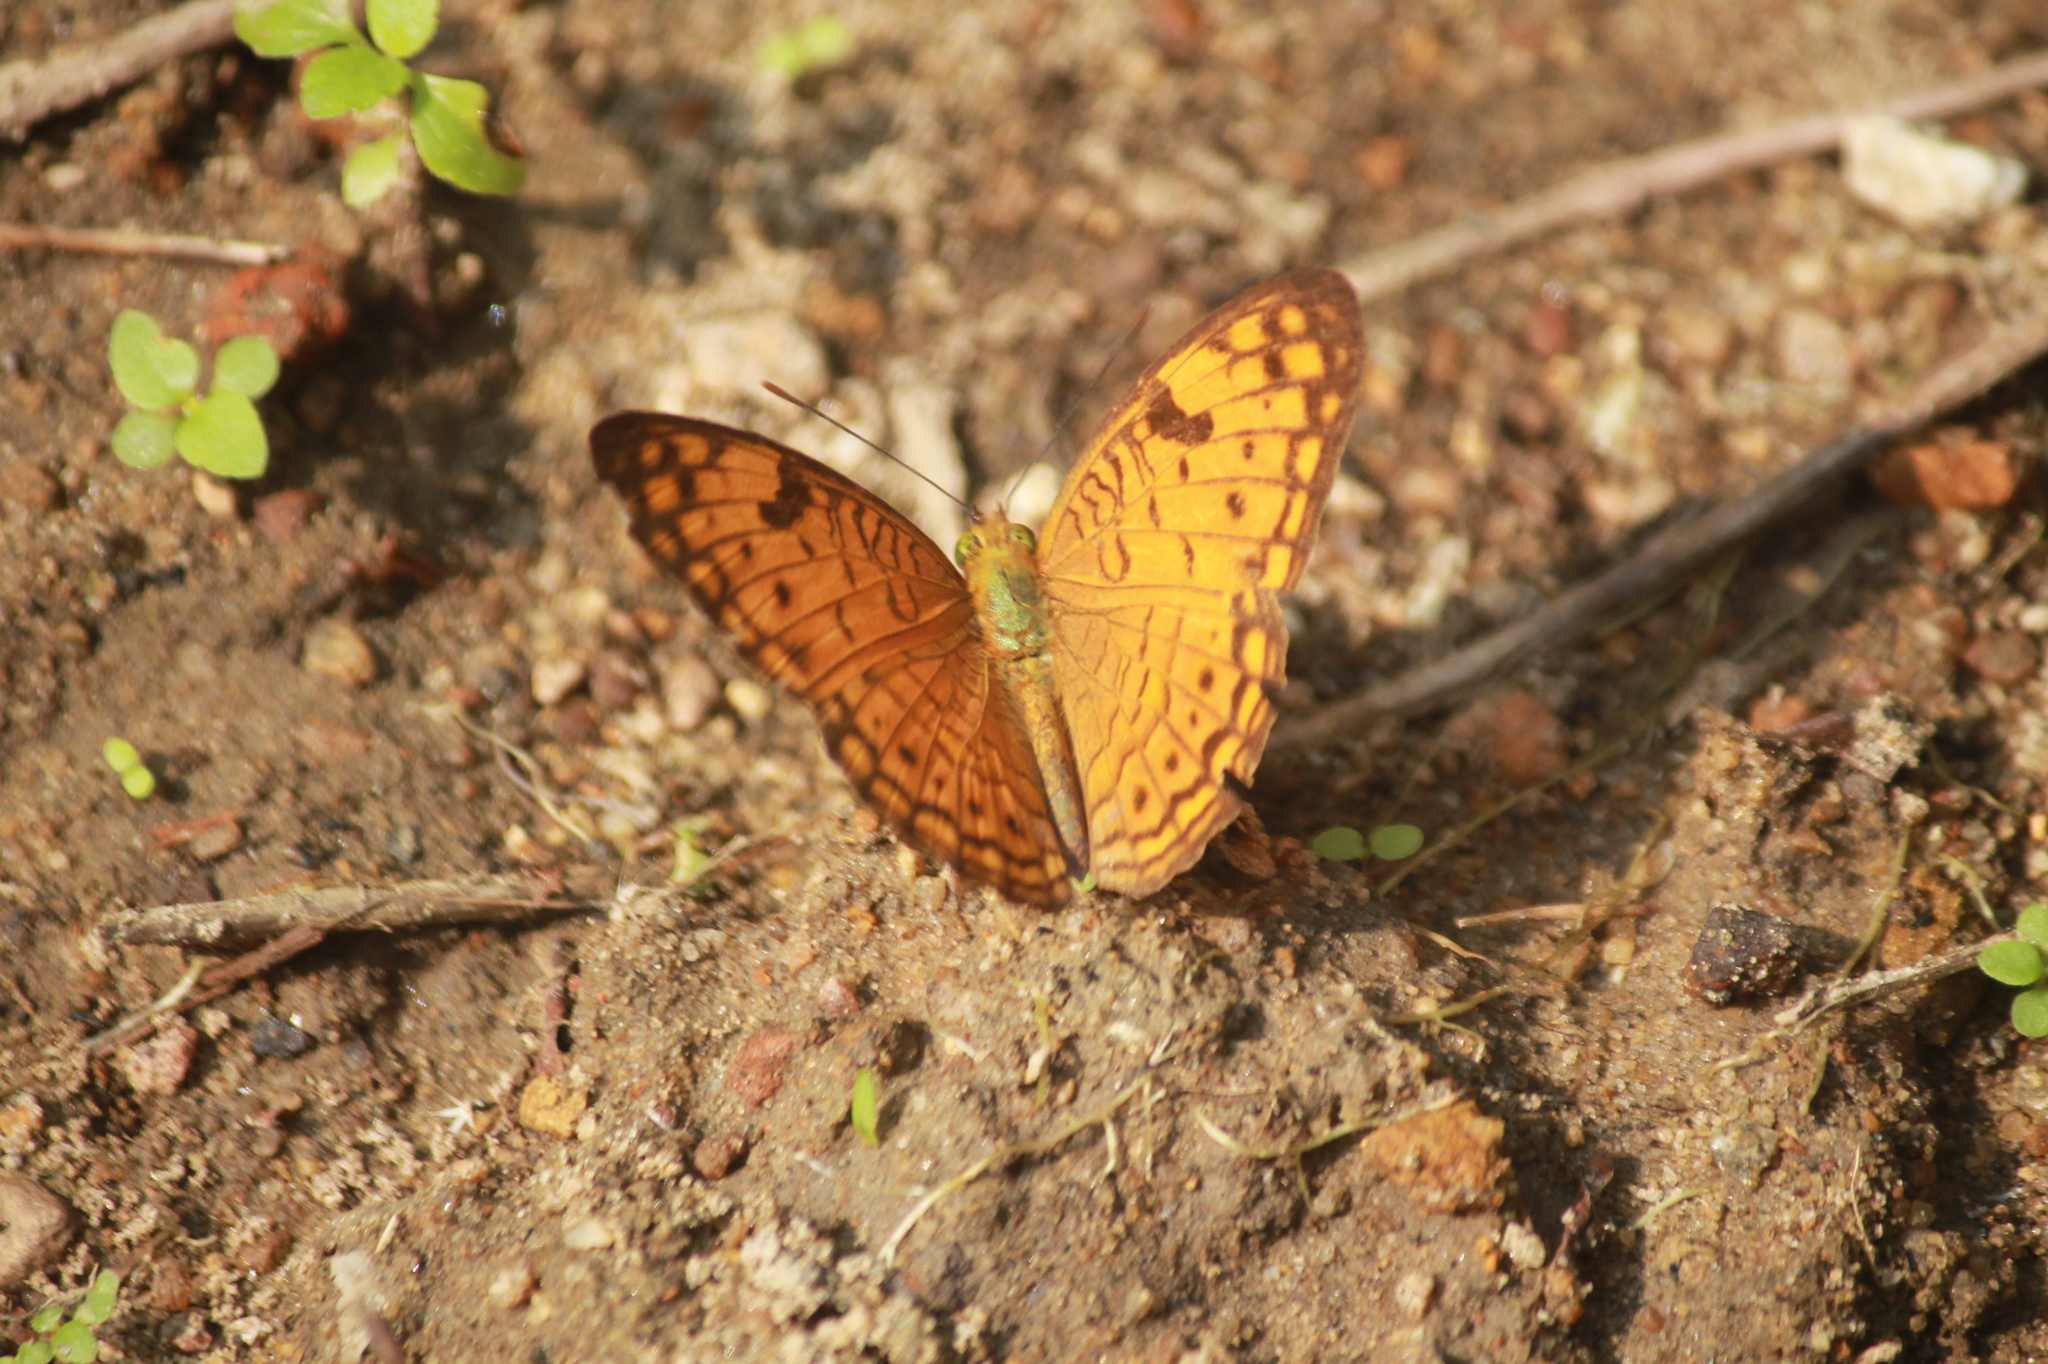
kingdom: Animalia
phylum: Arthropoda
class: Insecta
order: Lepidoptera
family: Nymphalidae
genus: Phalanta
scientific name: Phalanta alcippe
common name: Small leopard
